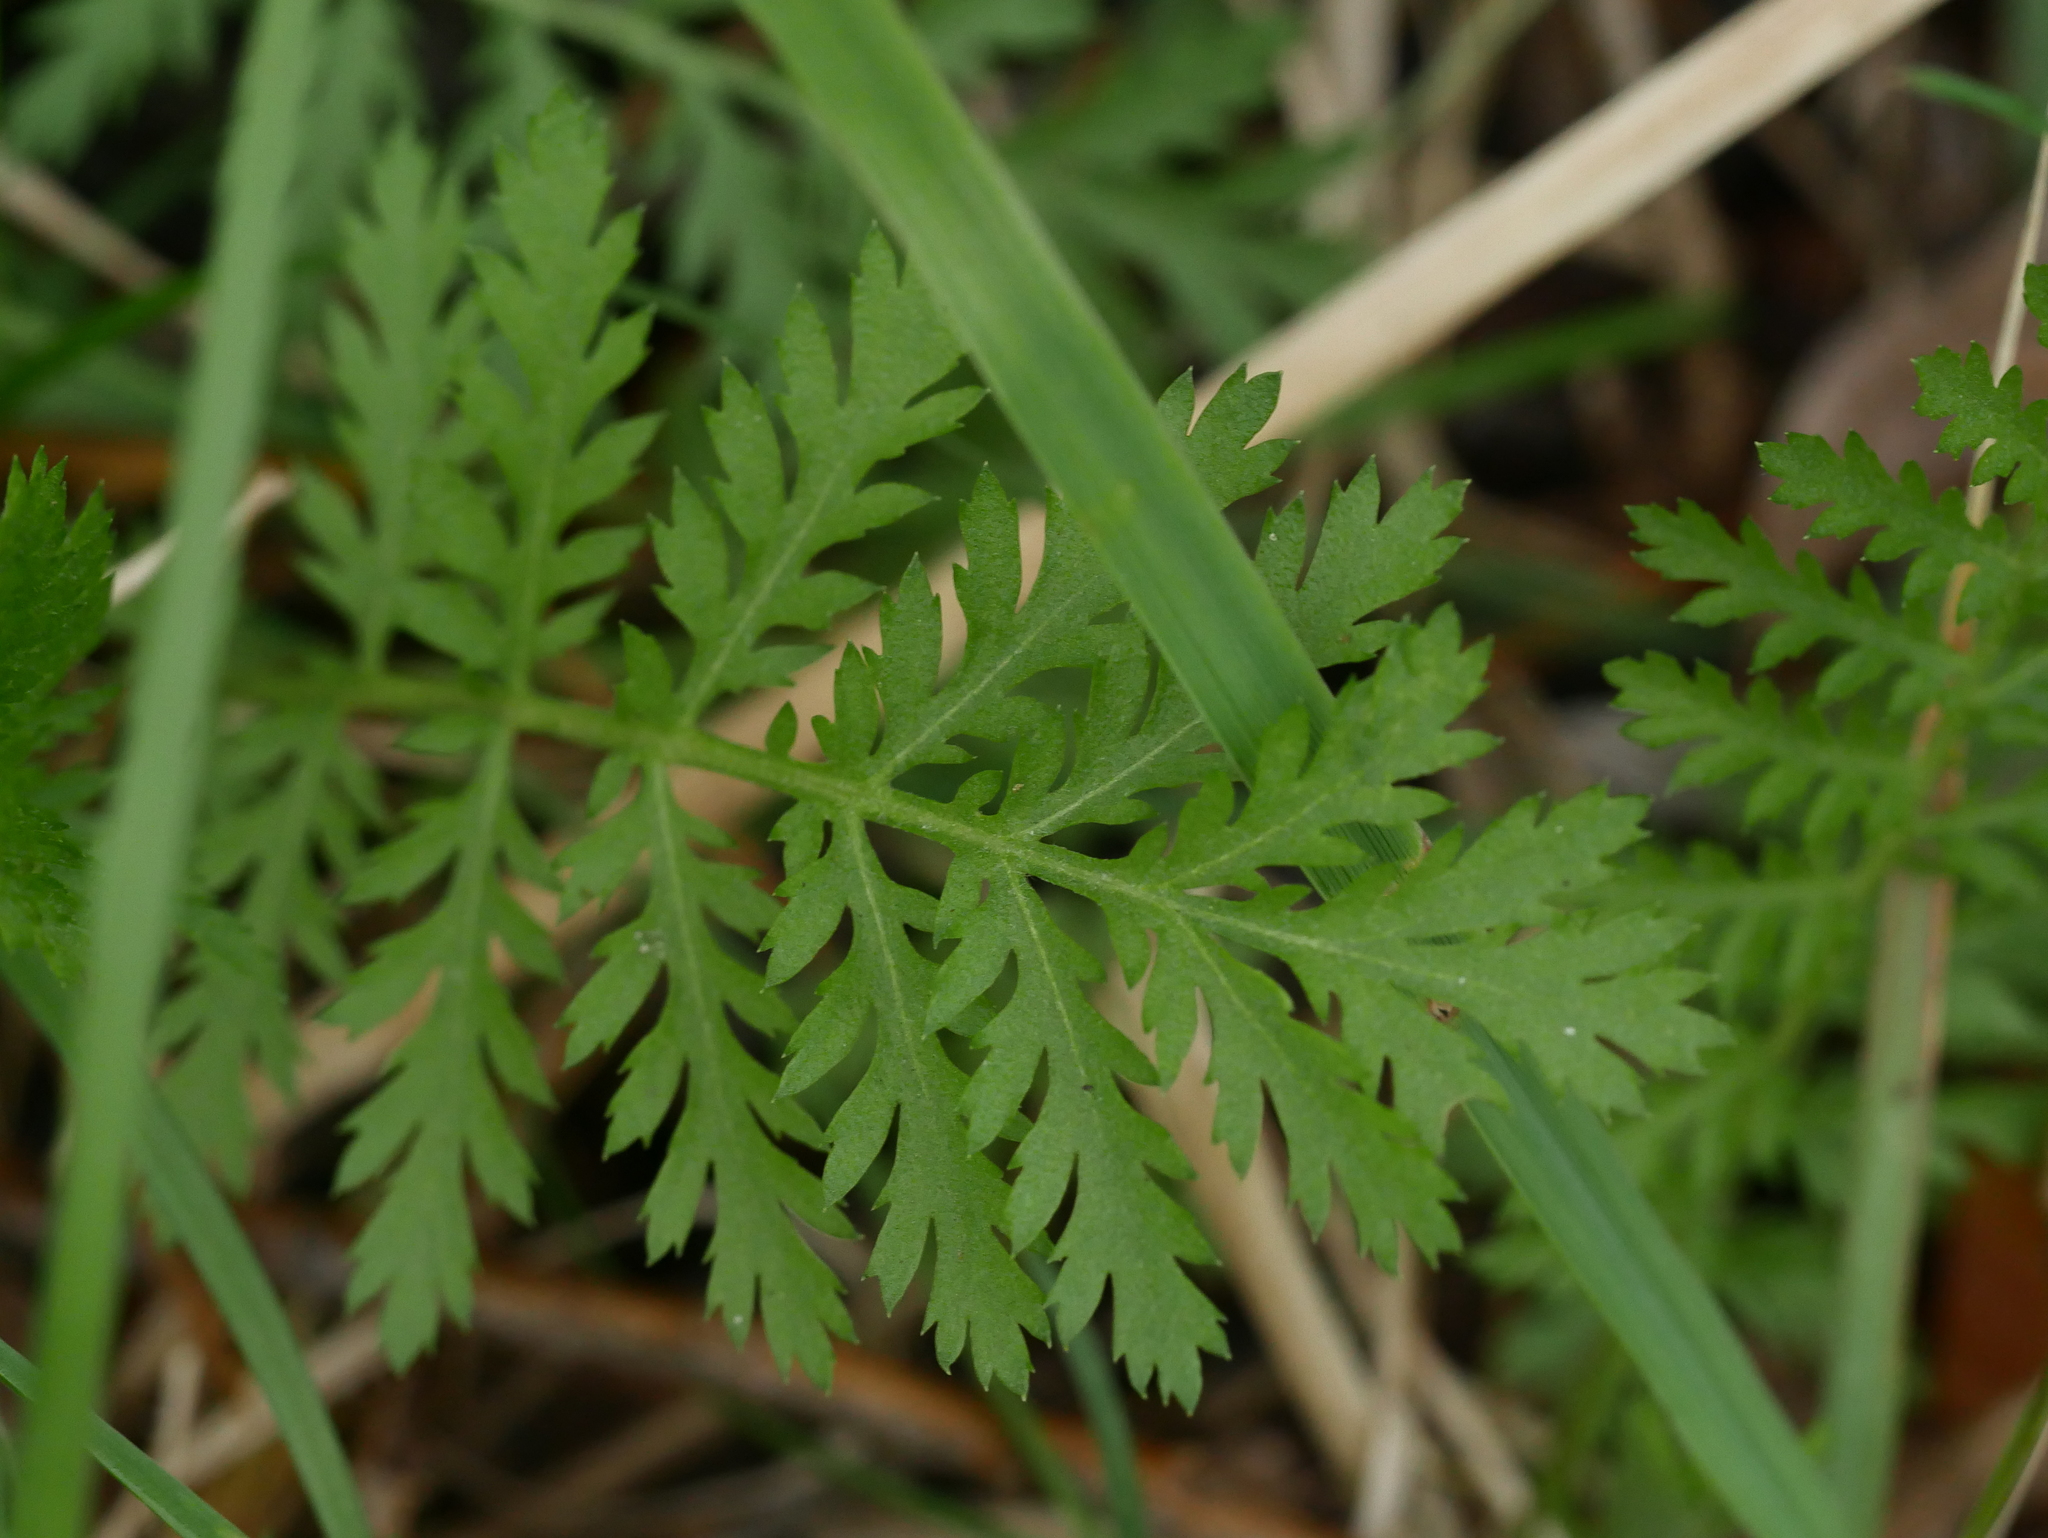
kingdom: Plantae
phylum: Tracheophyta
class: Magnoliopsida
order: Asterales
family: Asteraceae
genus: Tanacetum
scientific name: Tanacetum vulgare
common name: Common tansy
